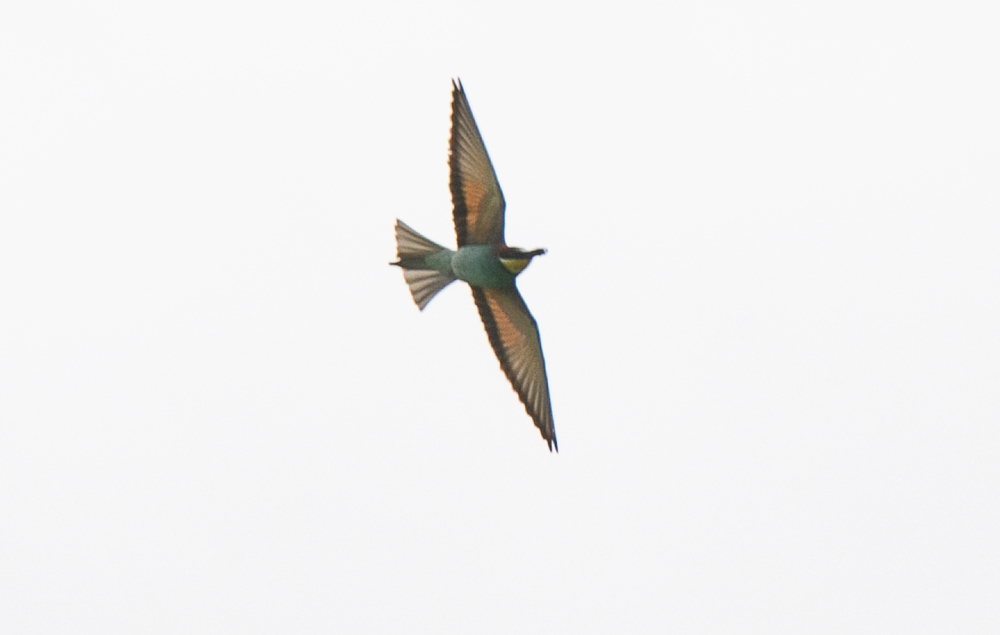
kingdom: Animalia
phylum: Chordata
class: Aves
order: Coraciiformes
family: Meropidae
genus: Merops
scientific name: Merops apiaster
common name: European bee-eater
